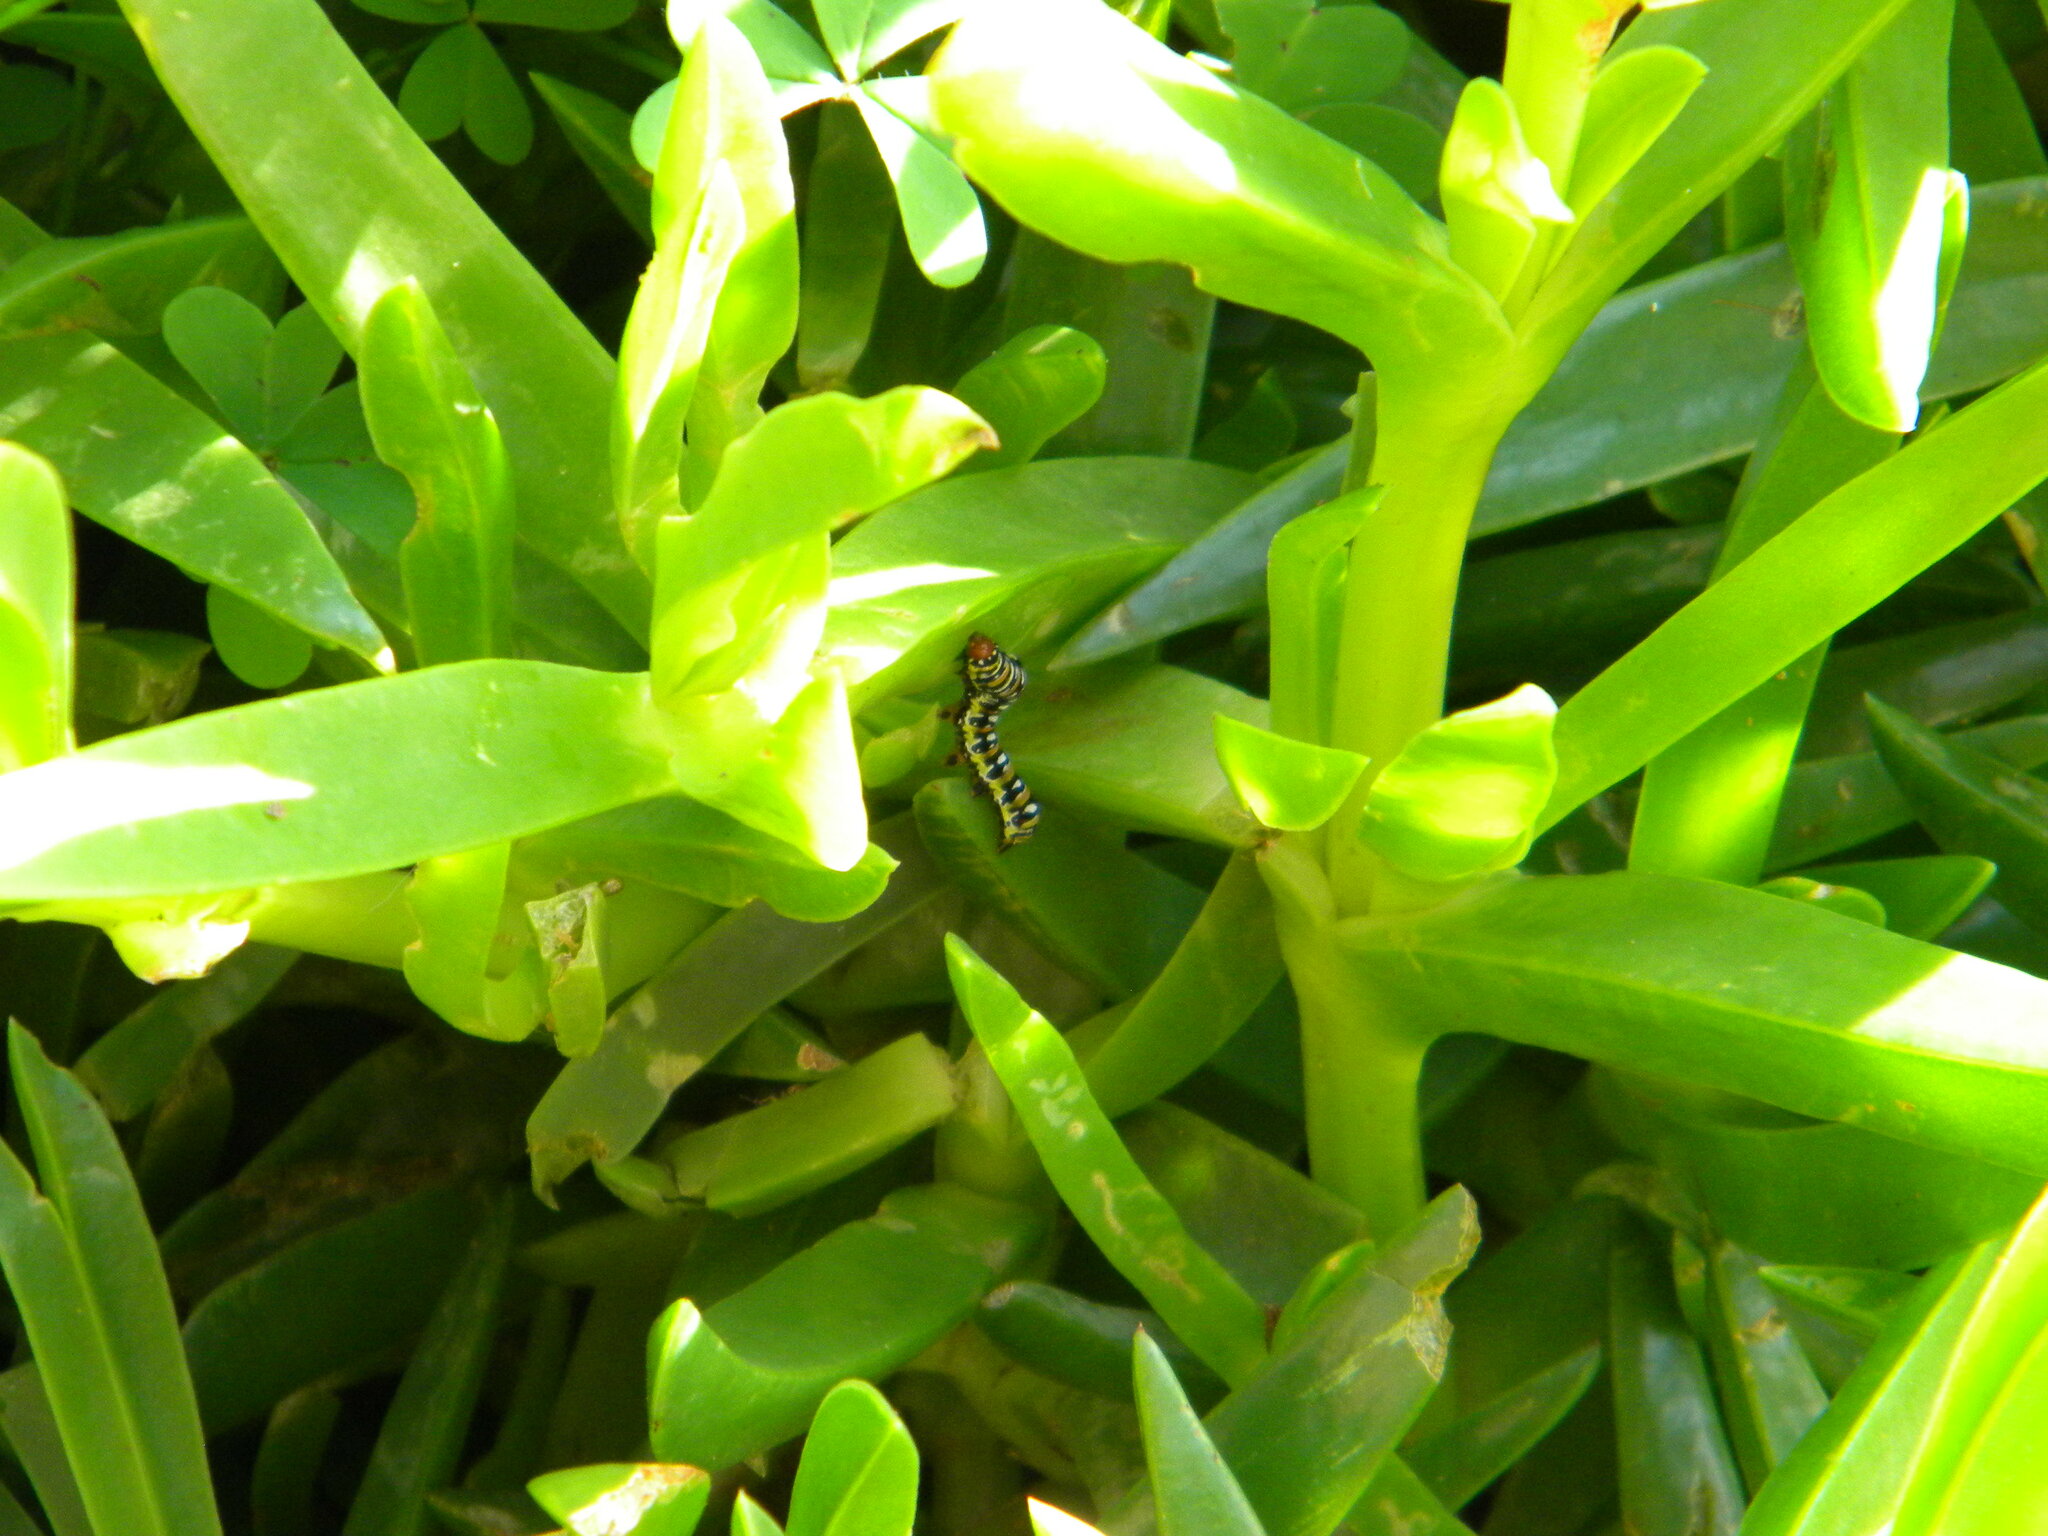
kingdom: Animalia
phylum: Arthropoda
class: Insecta
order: Lepidoptera
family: Noctuidae
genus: Klugeana
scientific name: Klugeana philoxalis
